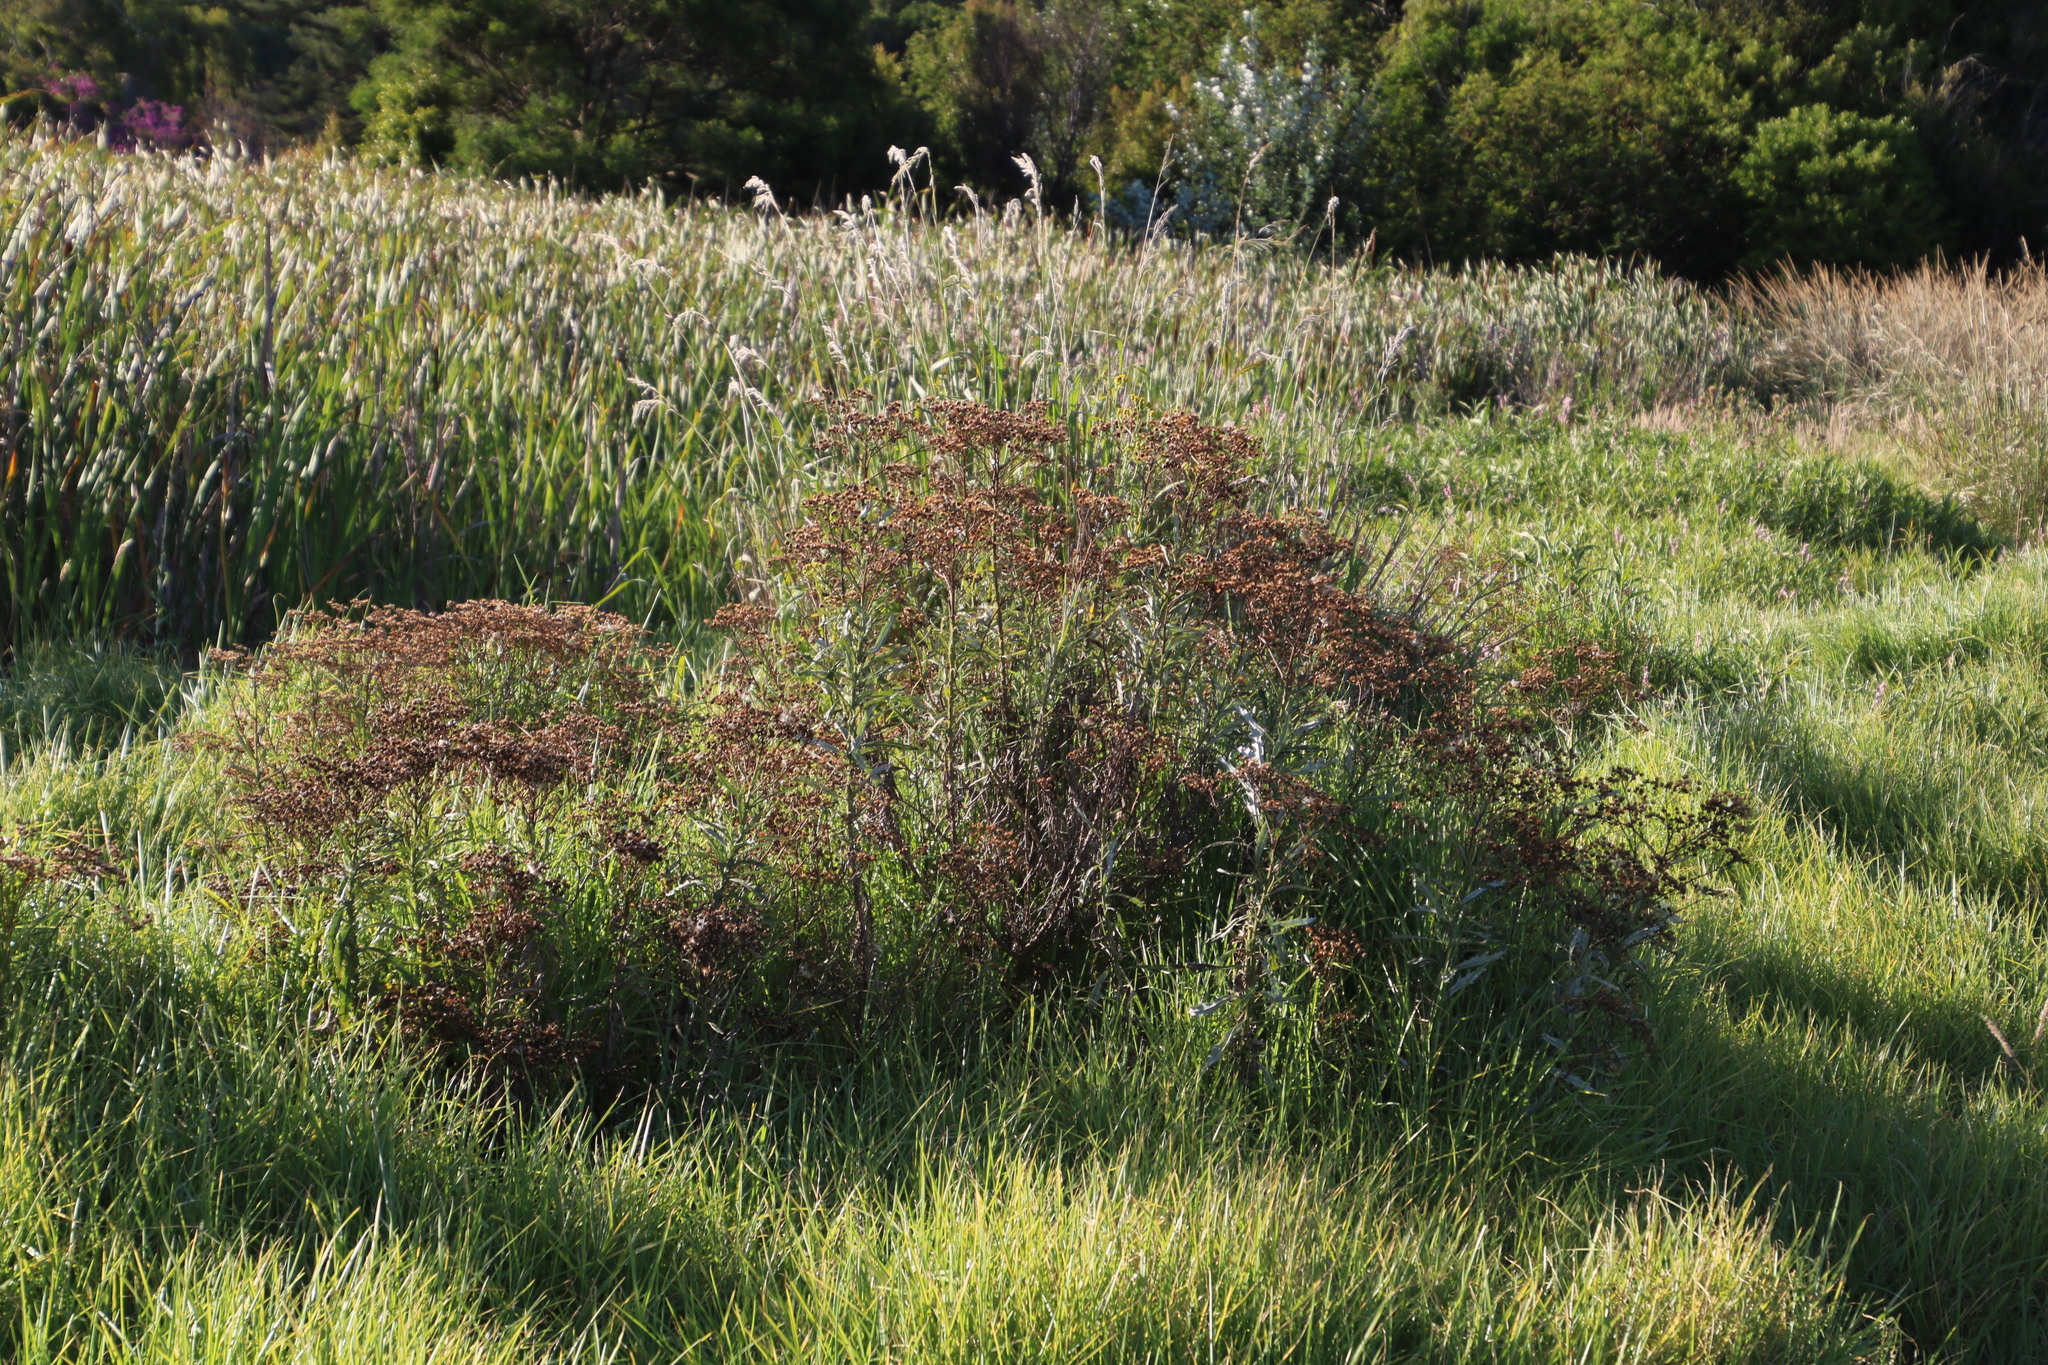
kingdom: Plantae
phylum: Tracheophyta
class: Magnoliopsida
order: Asterales
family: Asteraceae
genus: Senecio
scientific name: Senecio pterophorus
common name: Shoddy ragwort
